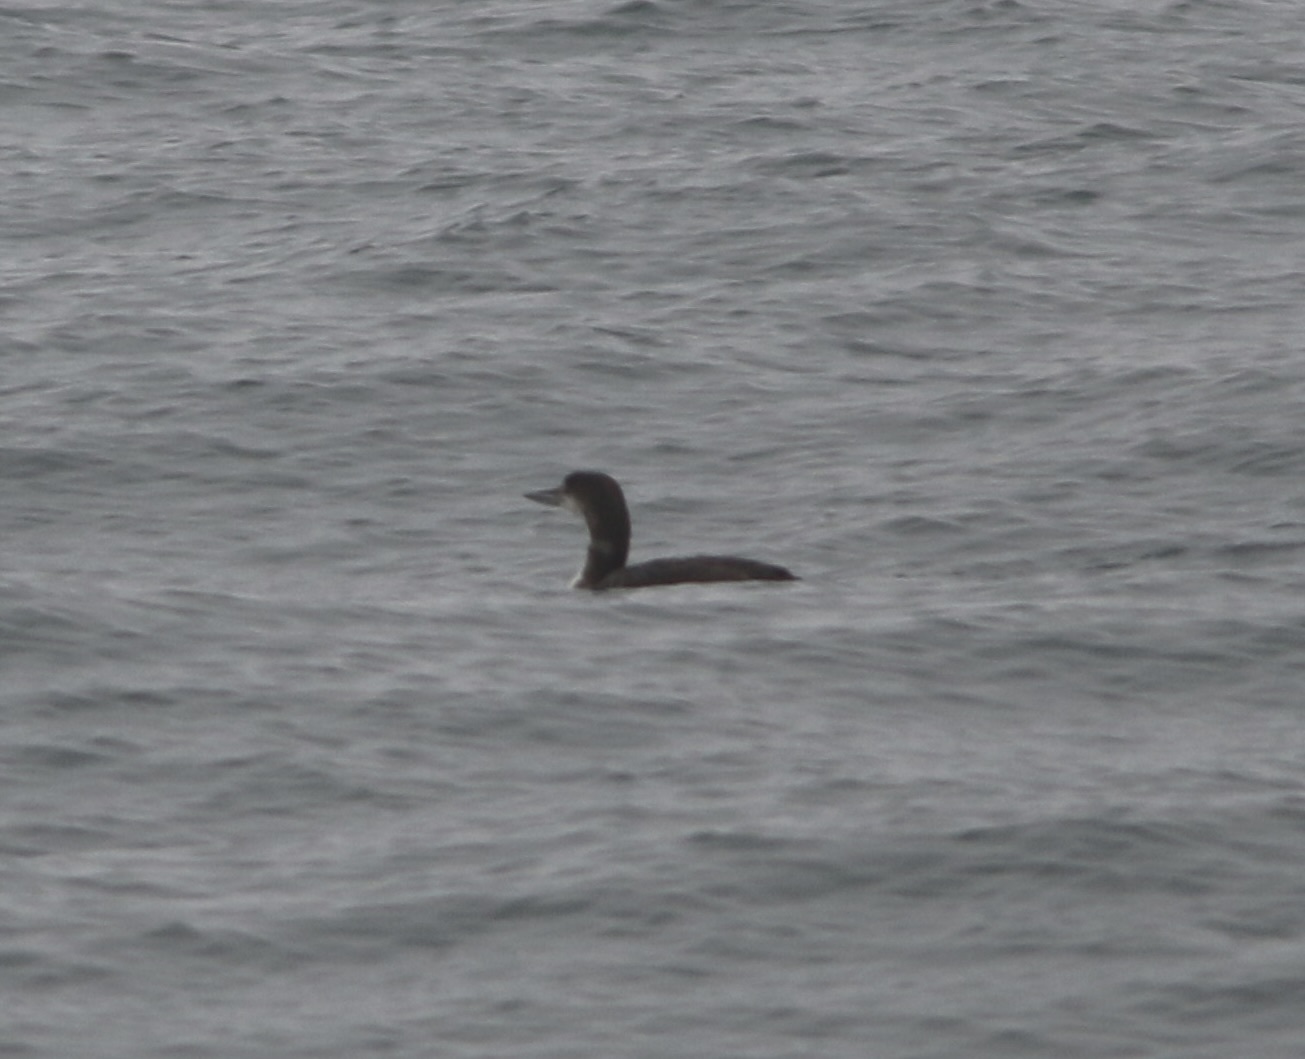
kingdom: Animalia
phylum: Chordata
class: Aves
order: Gaviiformes
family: Gaviidae
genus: Gavia
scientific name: Gavia immer
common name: Common loon
